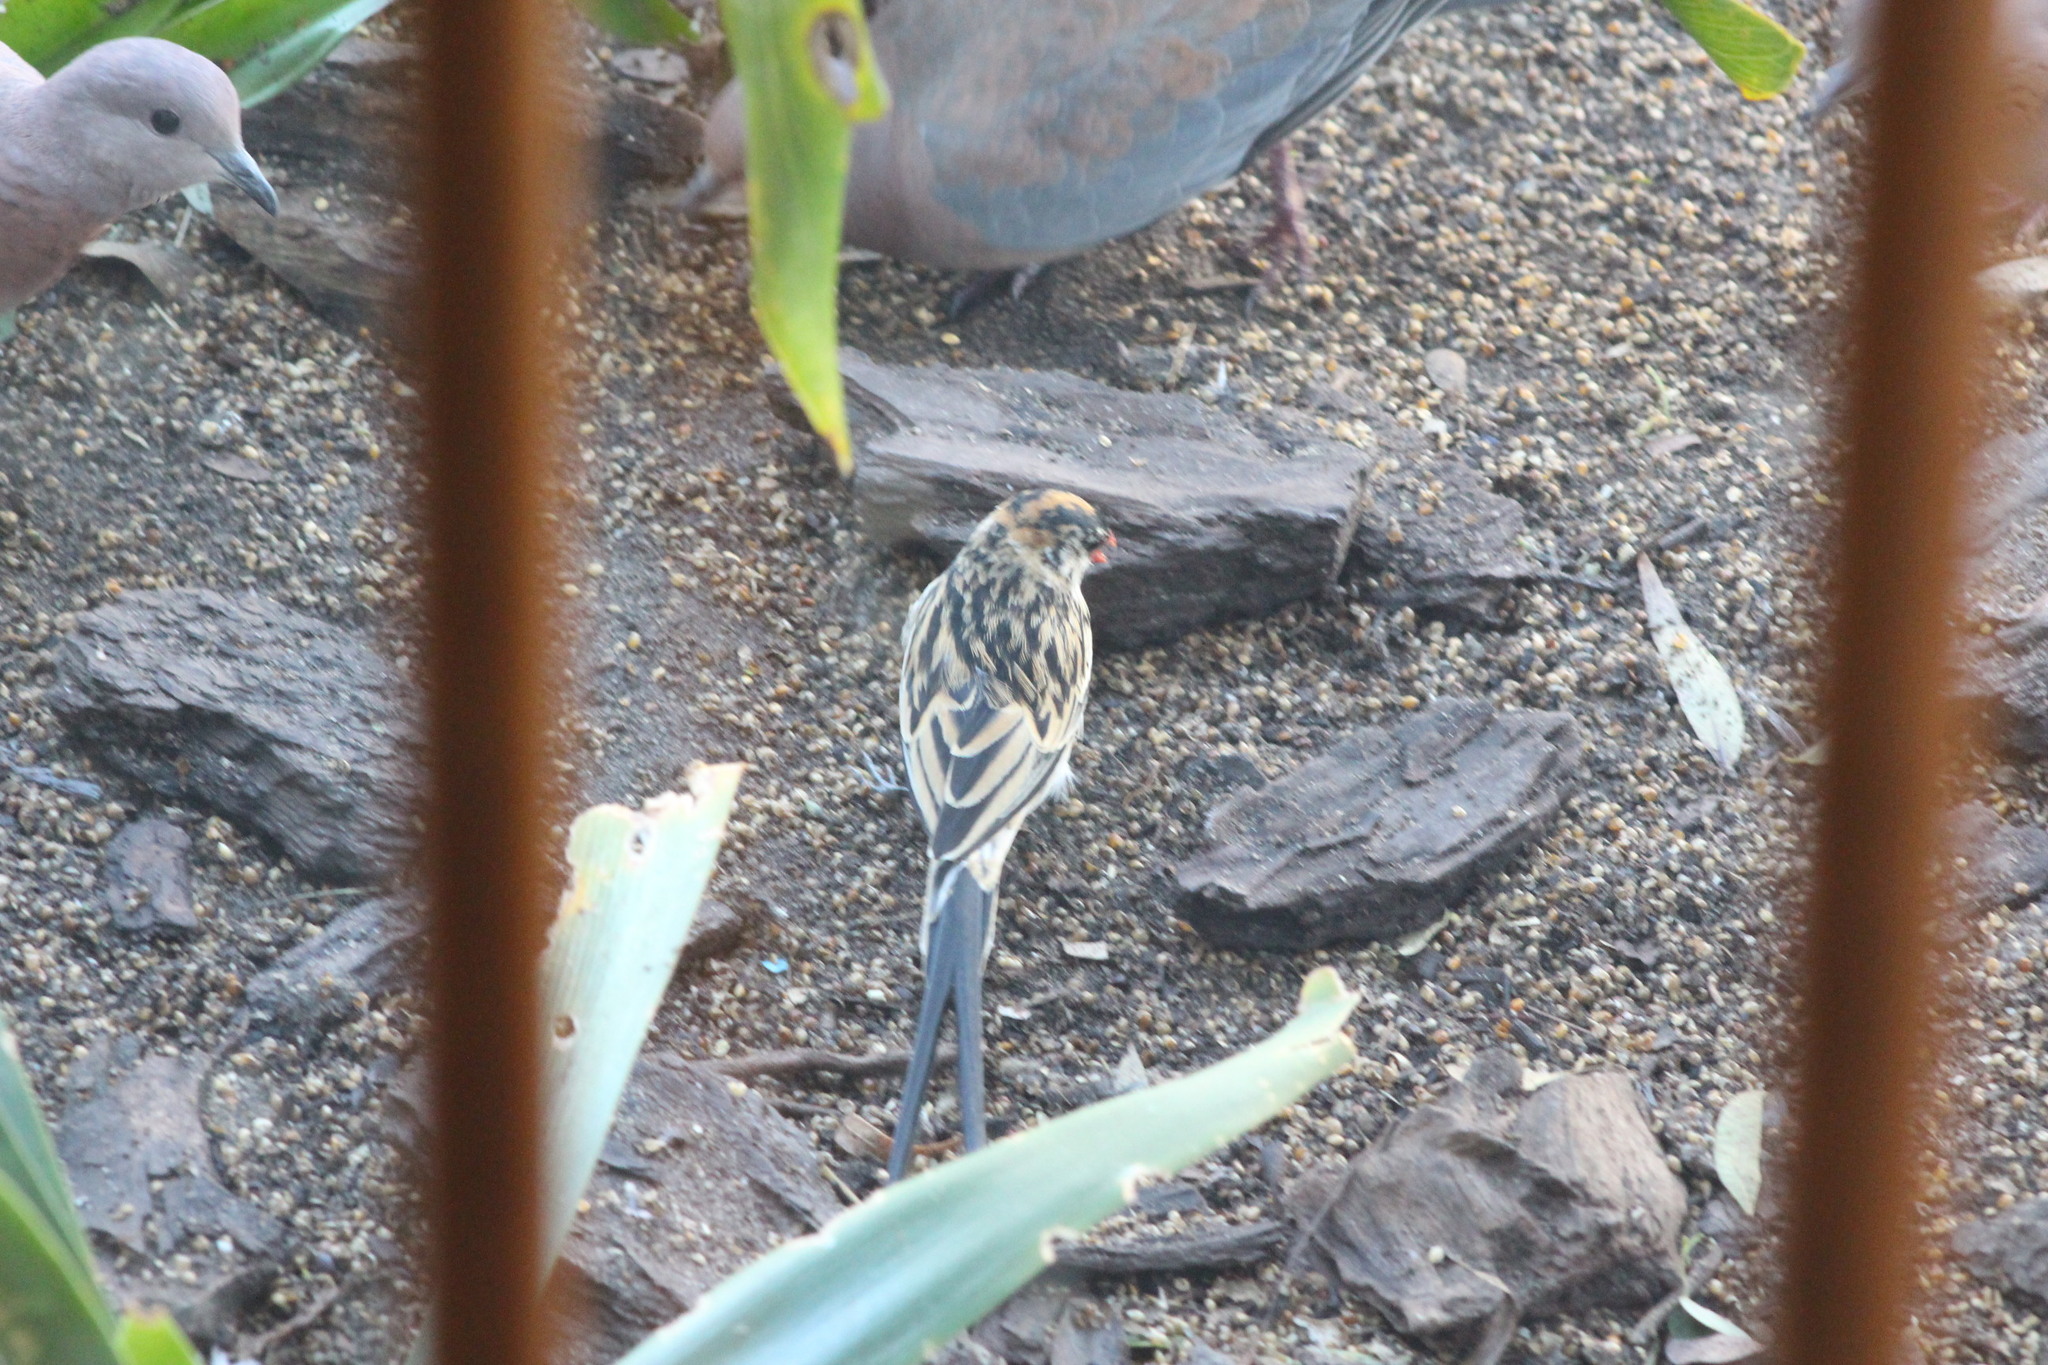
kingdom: Animalia
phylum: Chordata
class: Aves
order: Passeriformes
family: Viduidae
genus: Vidua
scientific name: Vidua macroura
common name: Pin-tailed whydah
